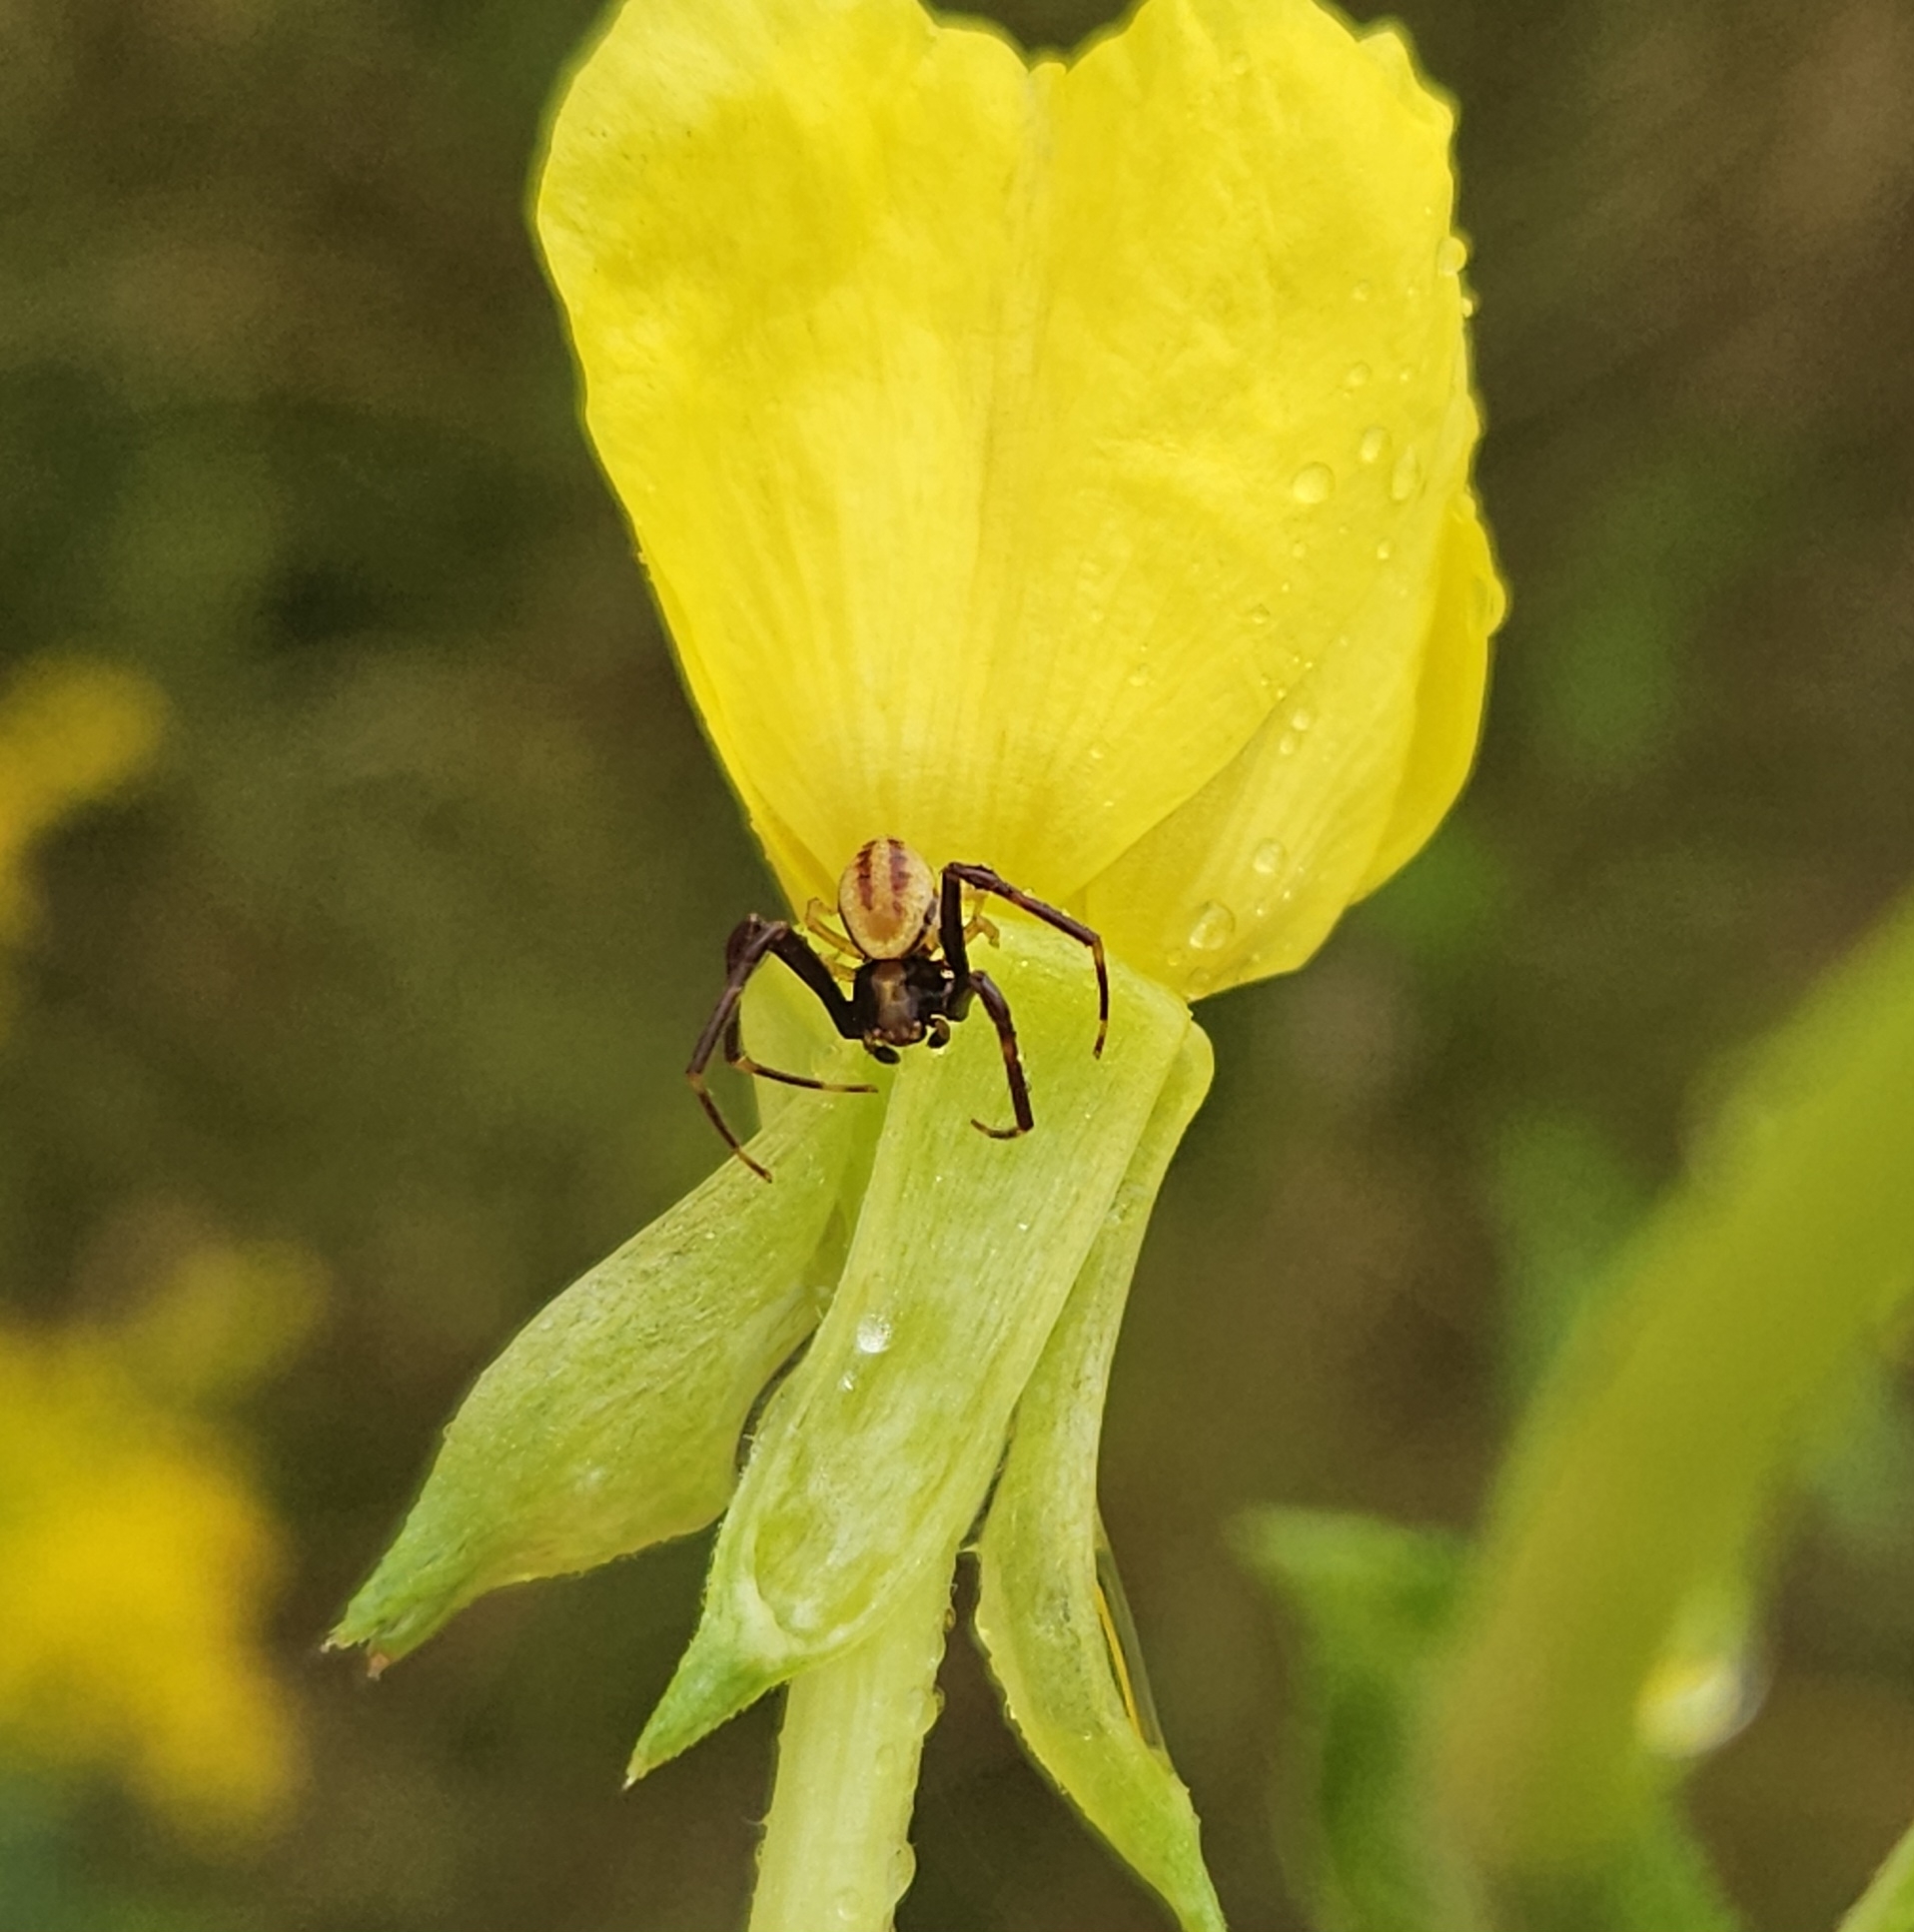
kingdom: Animalia
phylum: Arthropoda
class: Arachnida
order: Araneae
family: Thomisidae
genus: Misumena
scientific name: Misumena vatia
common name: Goldenrod crab spider
